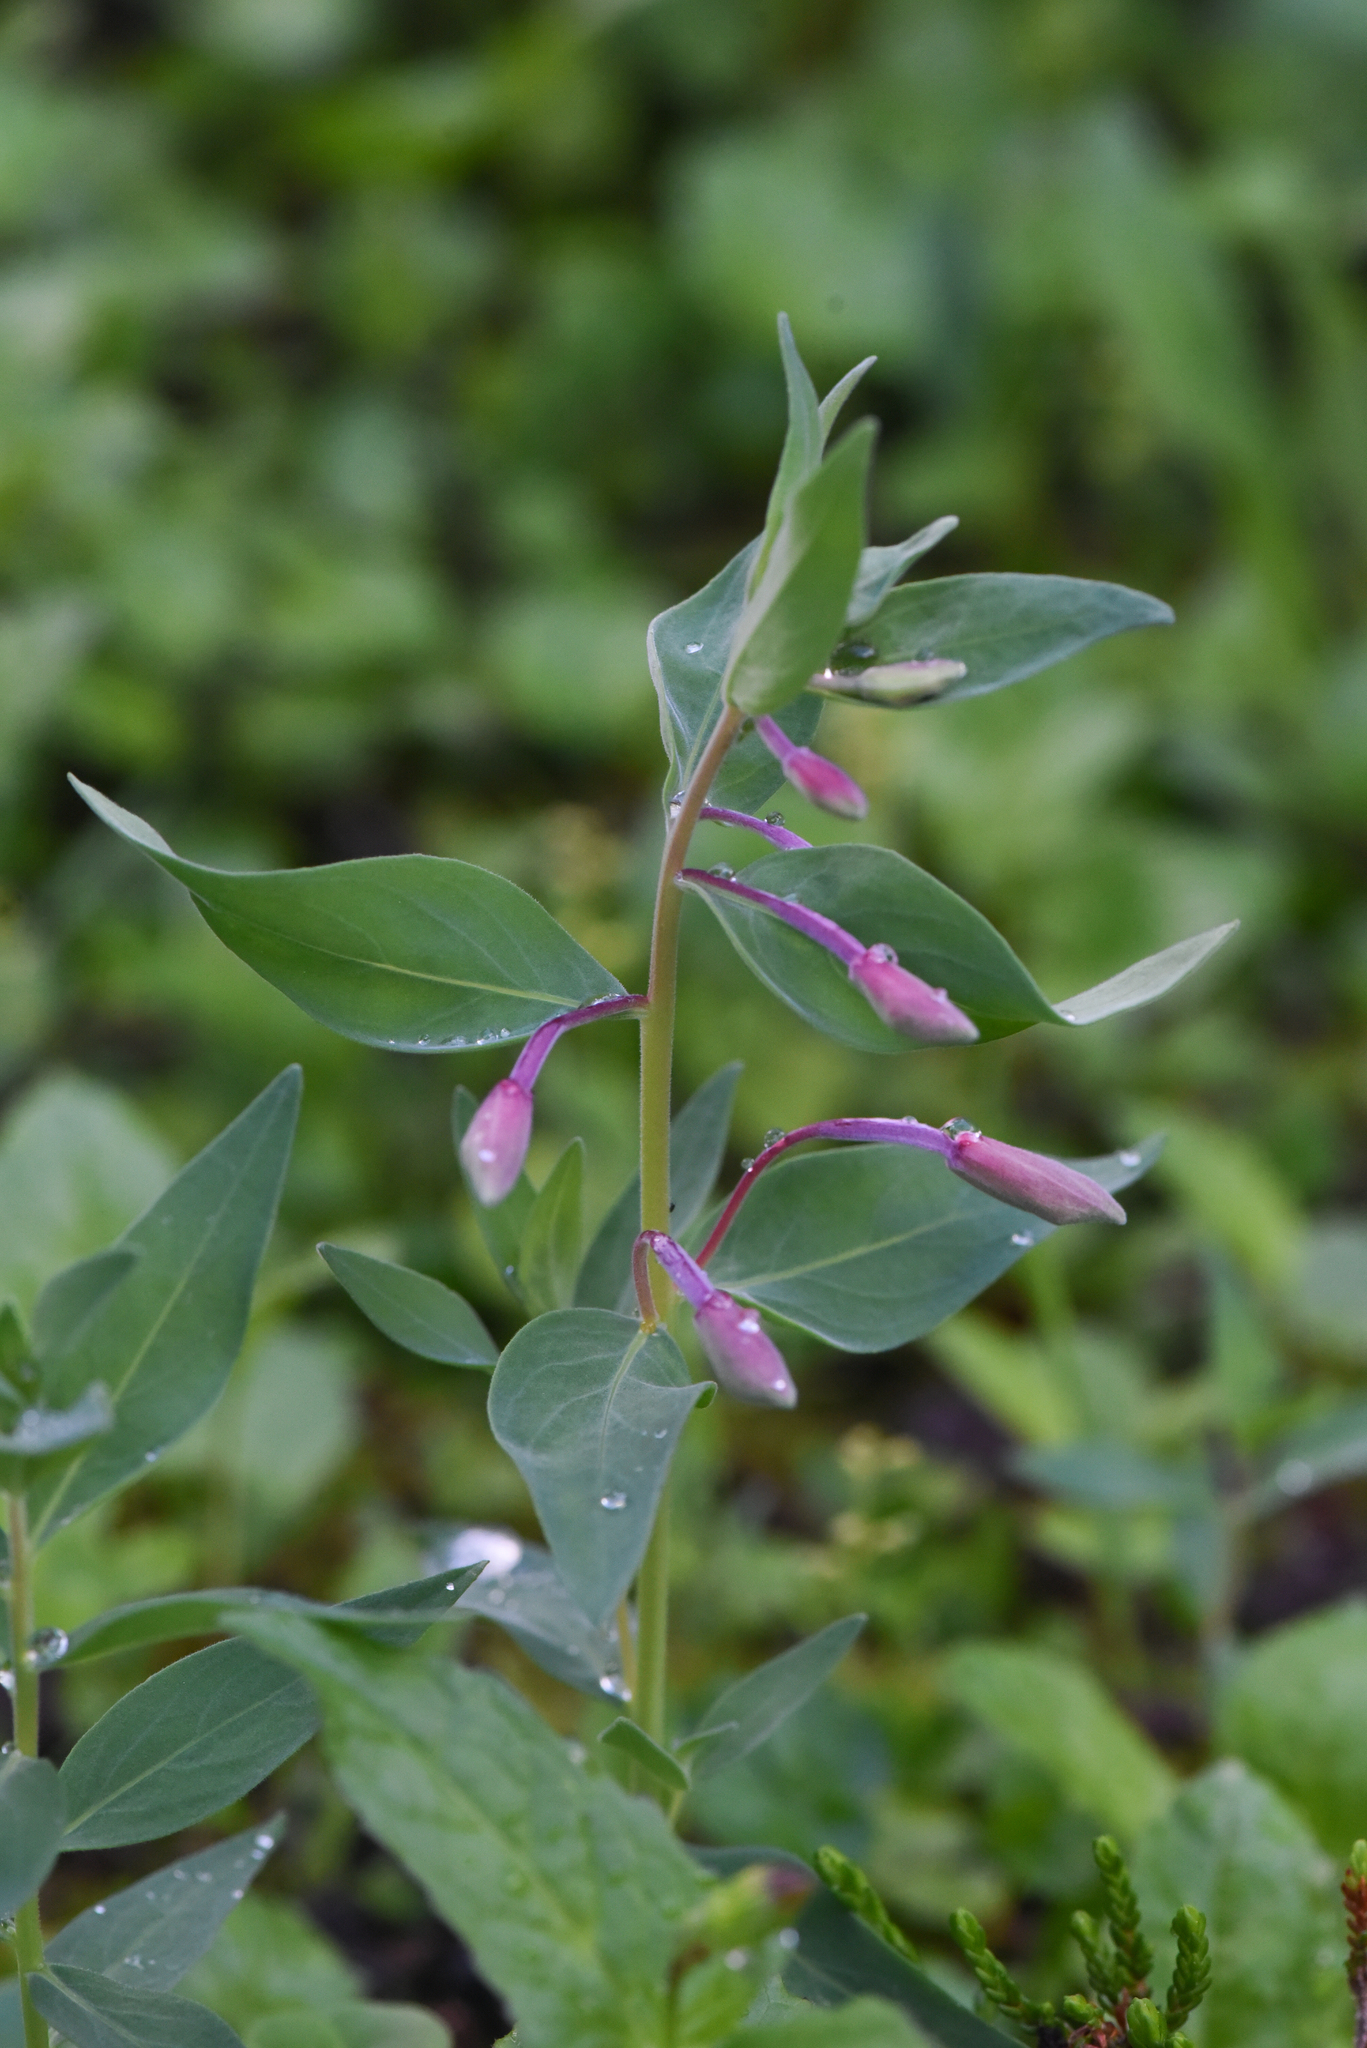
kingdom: Plantae
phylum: Tracheophyta
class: Magnoliopsida
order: Myrtales
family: Onagraceae
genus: Chamaenerion
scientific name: Chamaenerion latifolium
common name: Dwarf fireweed
